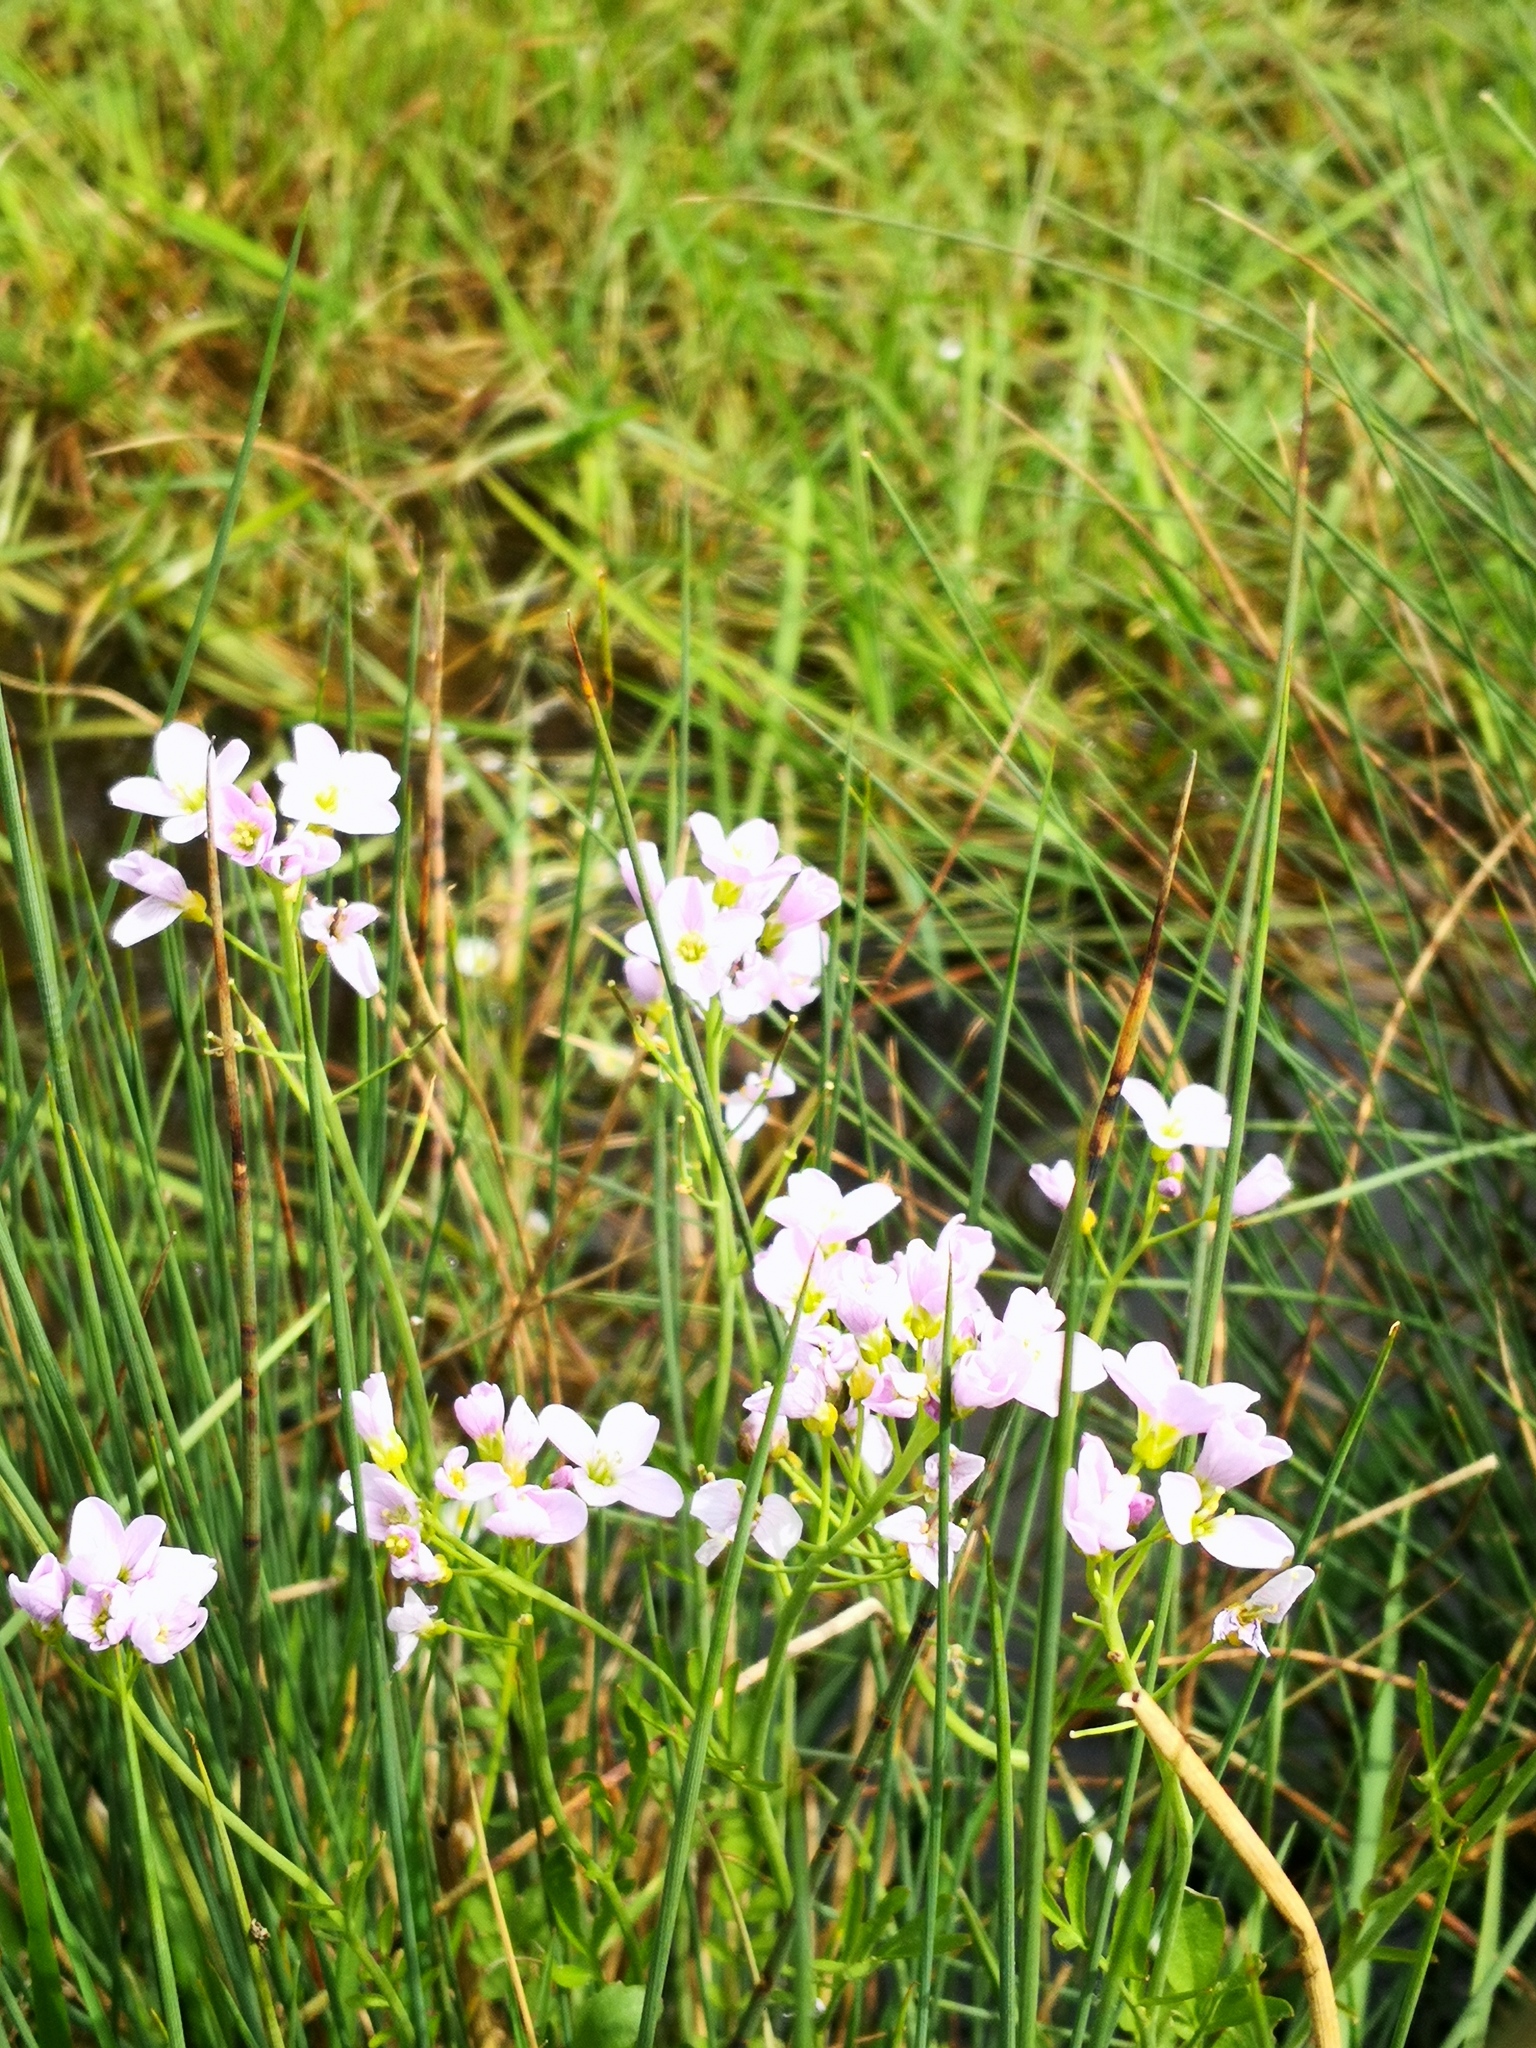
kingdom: Plantae
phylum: Tracheophyta
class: Magnoliopsida
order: Brassicales
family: Brassicaceae
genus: Cardamine
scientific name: Cardamine pratensis
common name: Cuckoo flower
